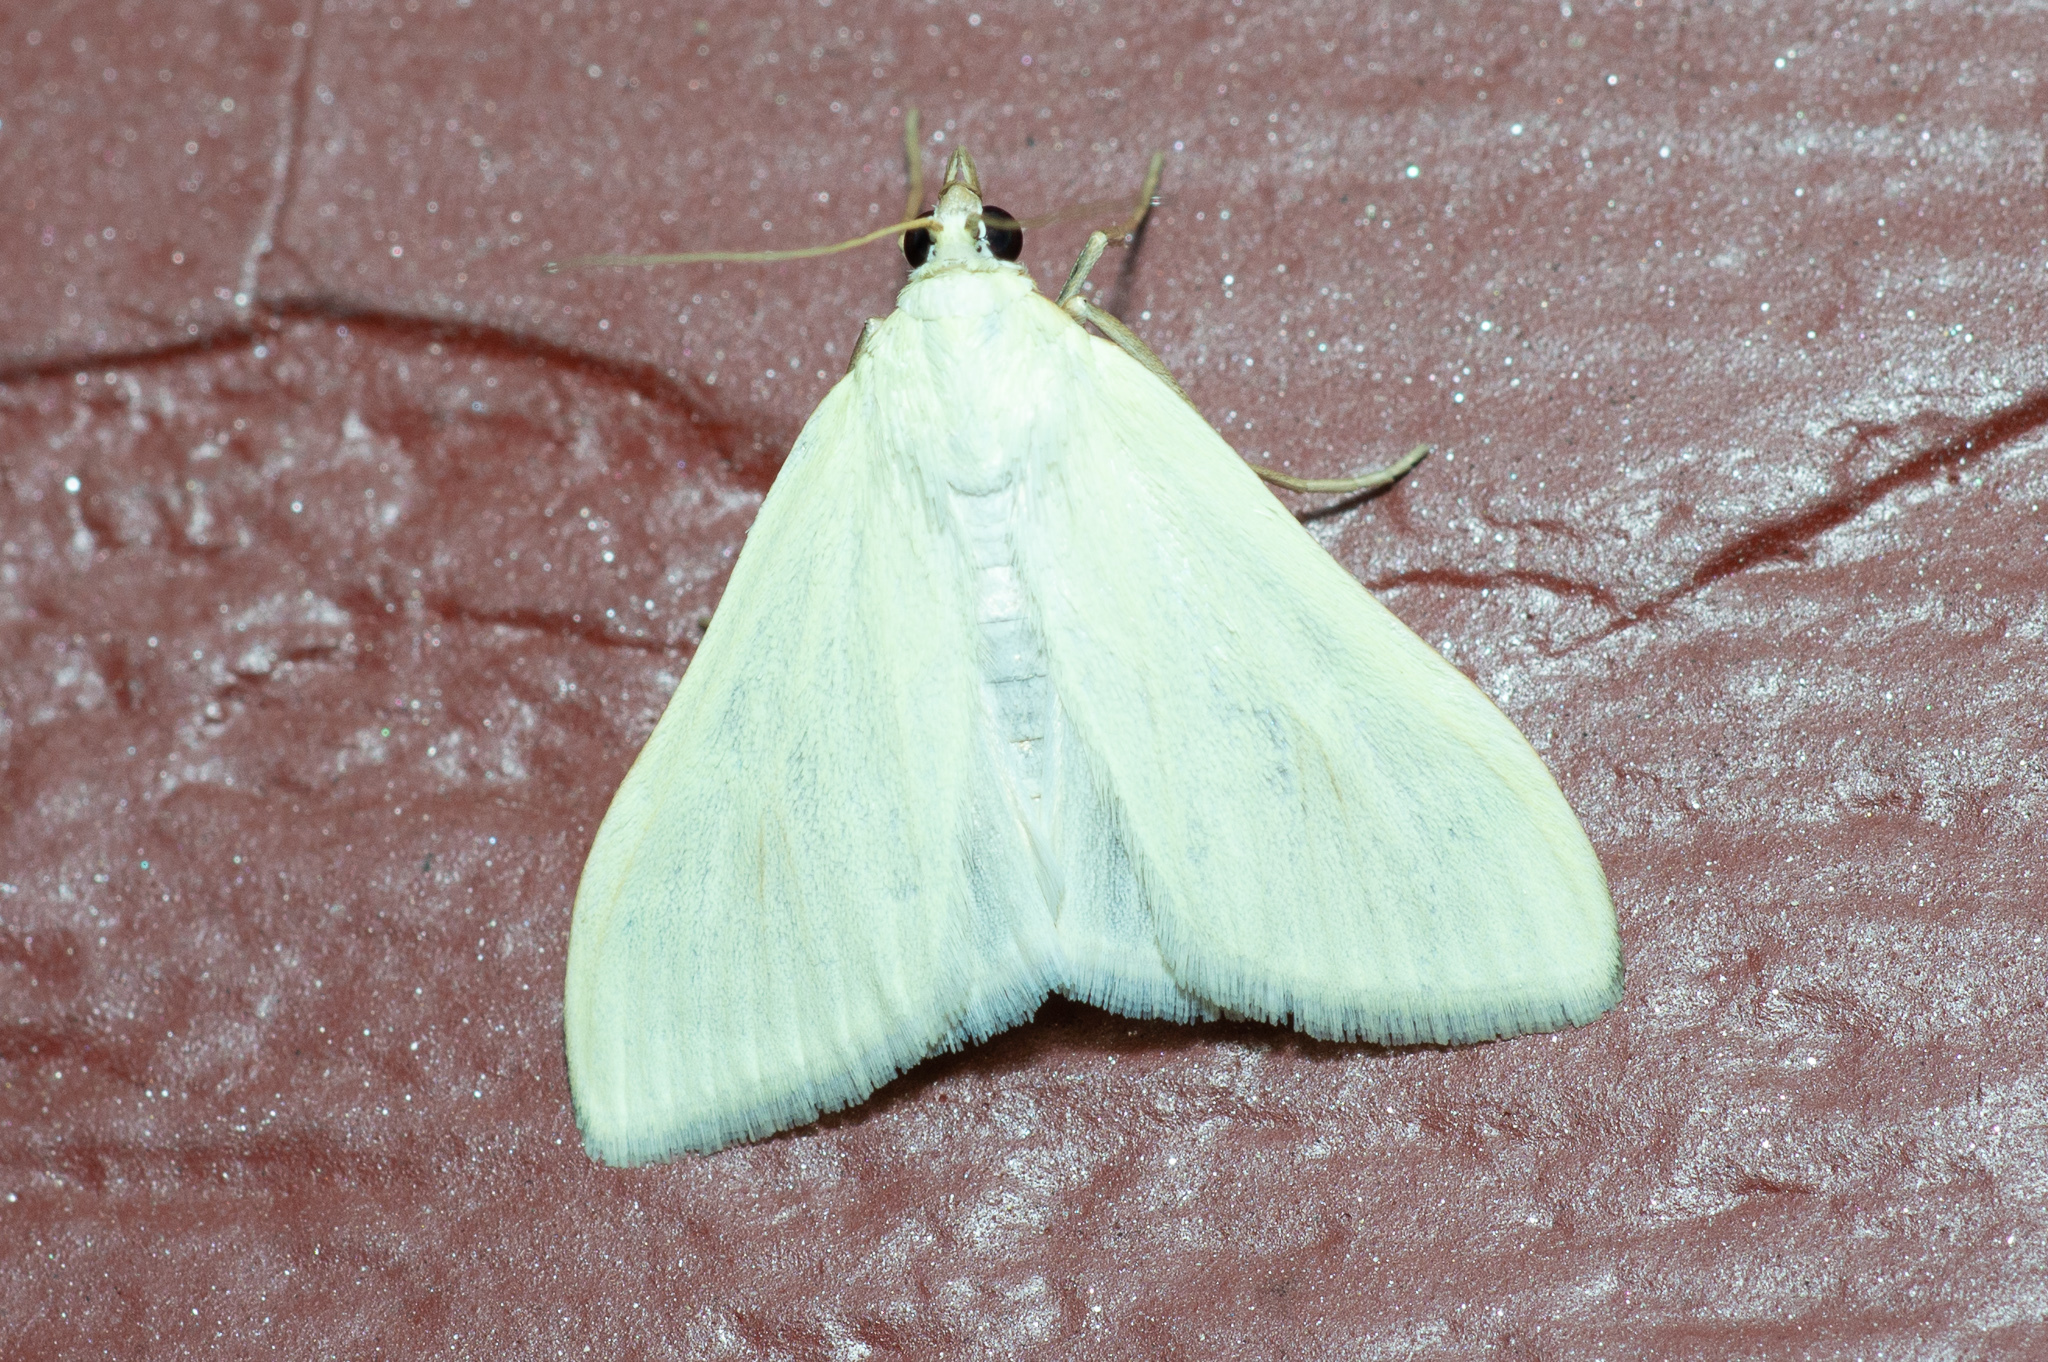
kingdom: Animalia
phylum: Arthropoda
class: Insecta
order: Lepidoptera
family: Crambidae
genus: Sitochroa
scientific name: Sitochroa palealis
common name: Greenish-yellow sitochroa moth
